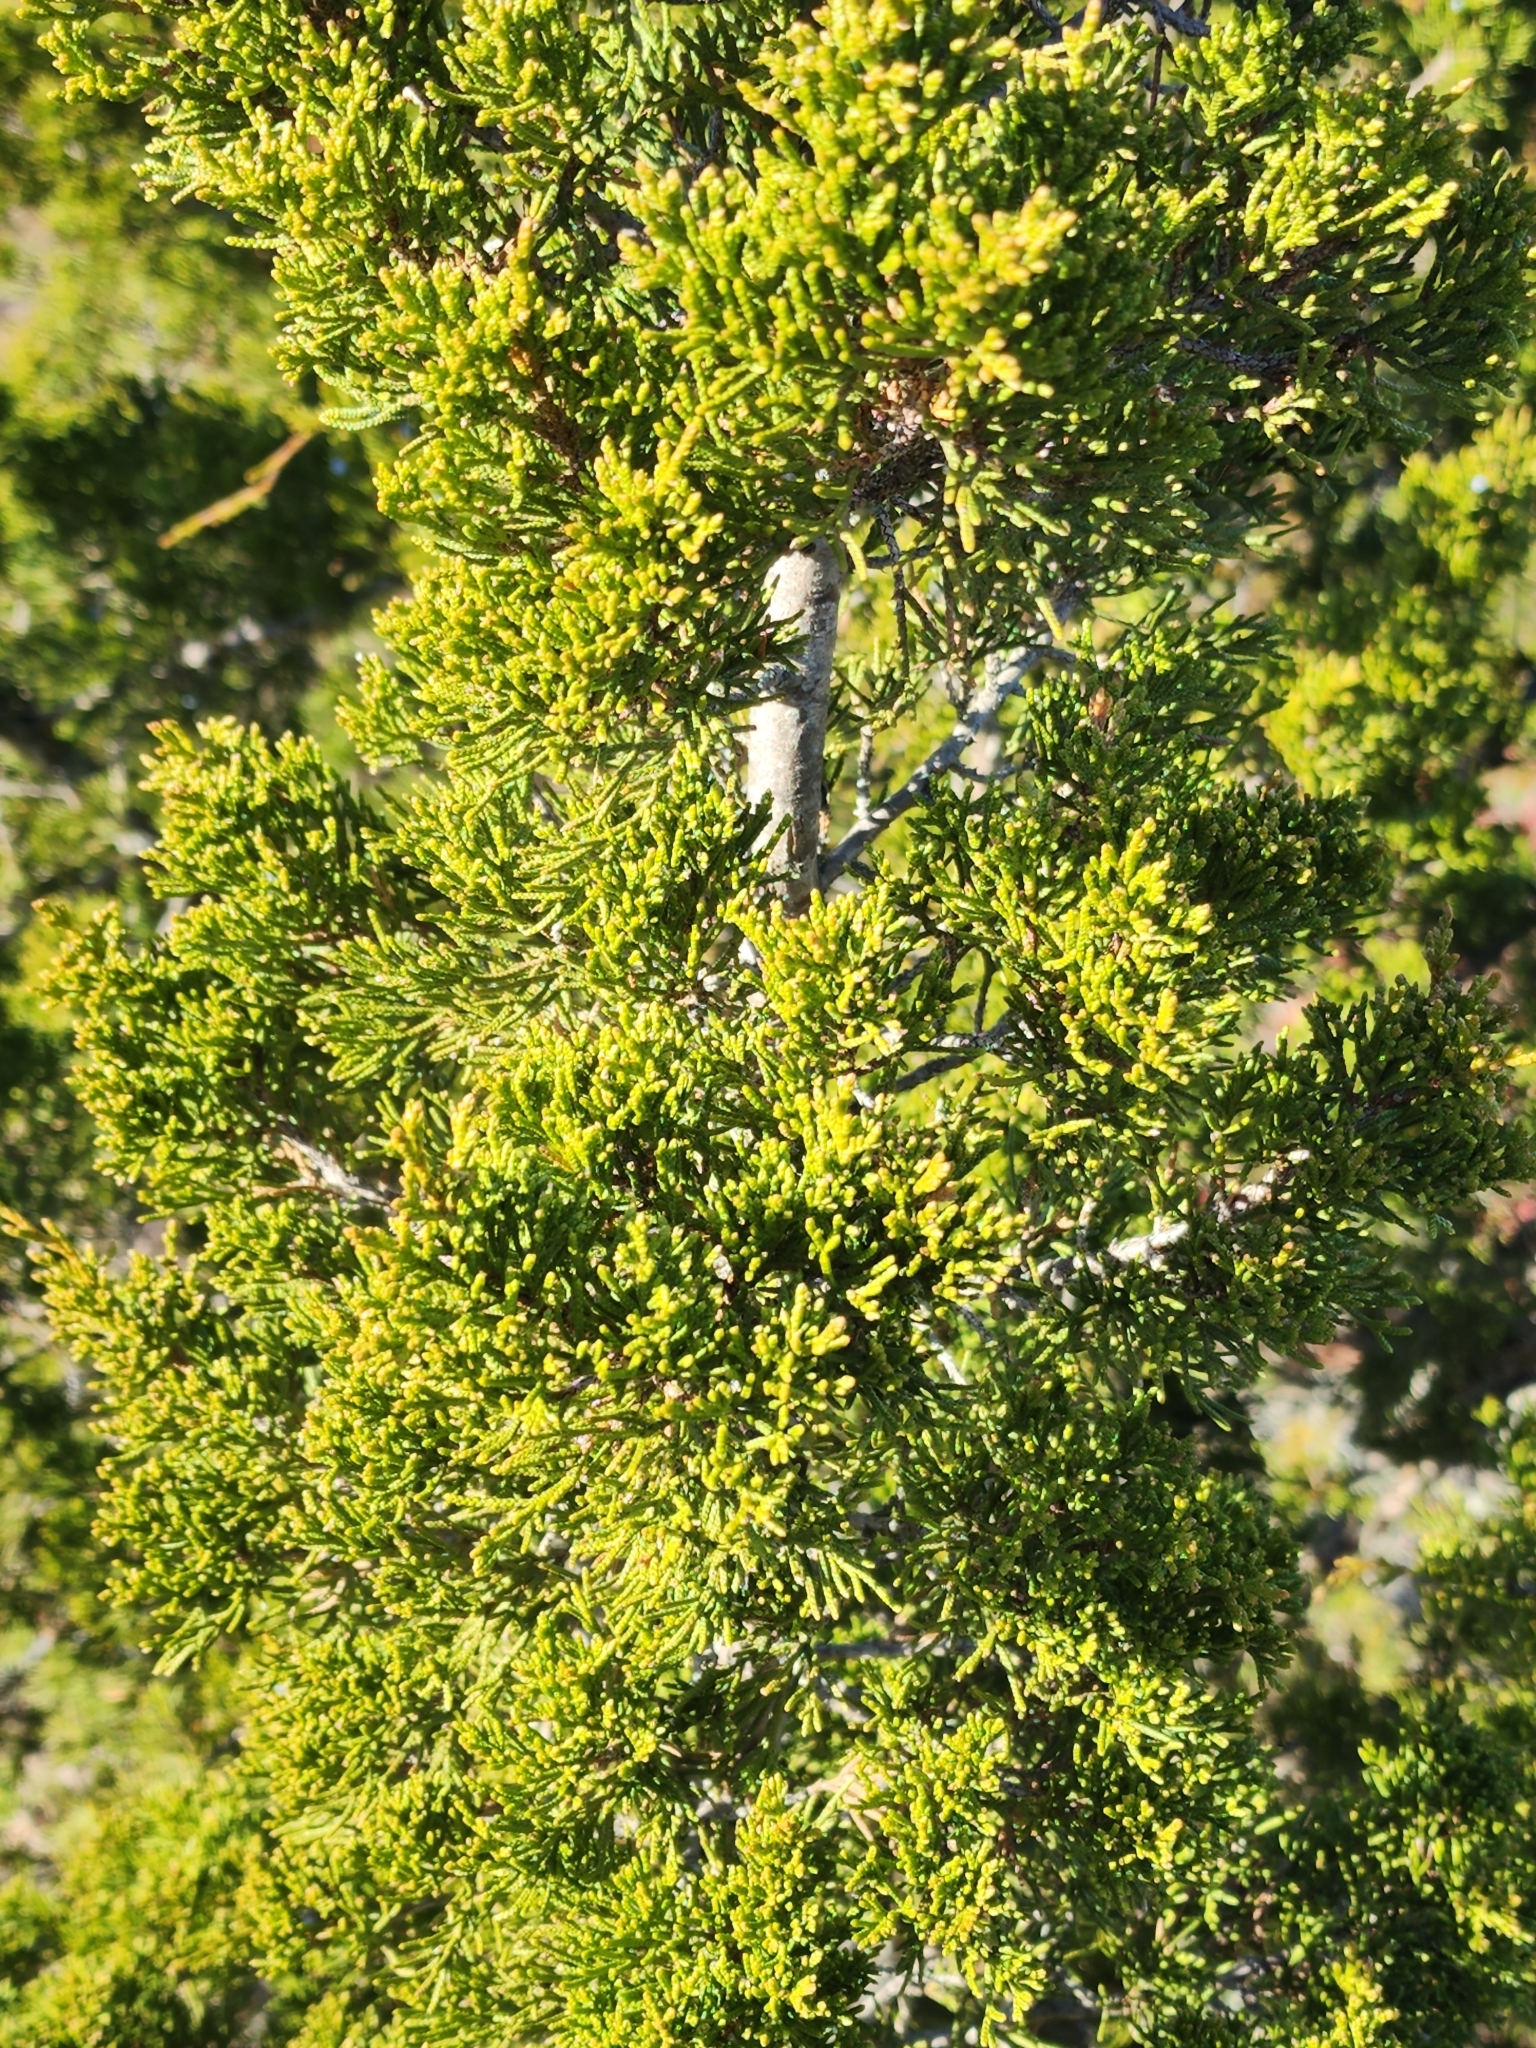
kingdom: Plantae
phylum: Tracheophyta
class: Pinopsida
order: Pinales
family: Cupressaceae
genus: Juniperus
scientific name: Juniperus virginiana
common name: Red juniper
